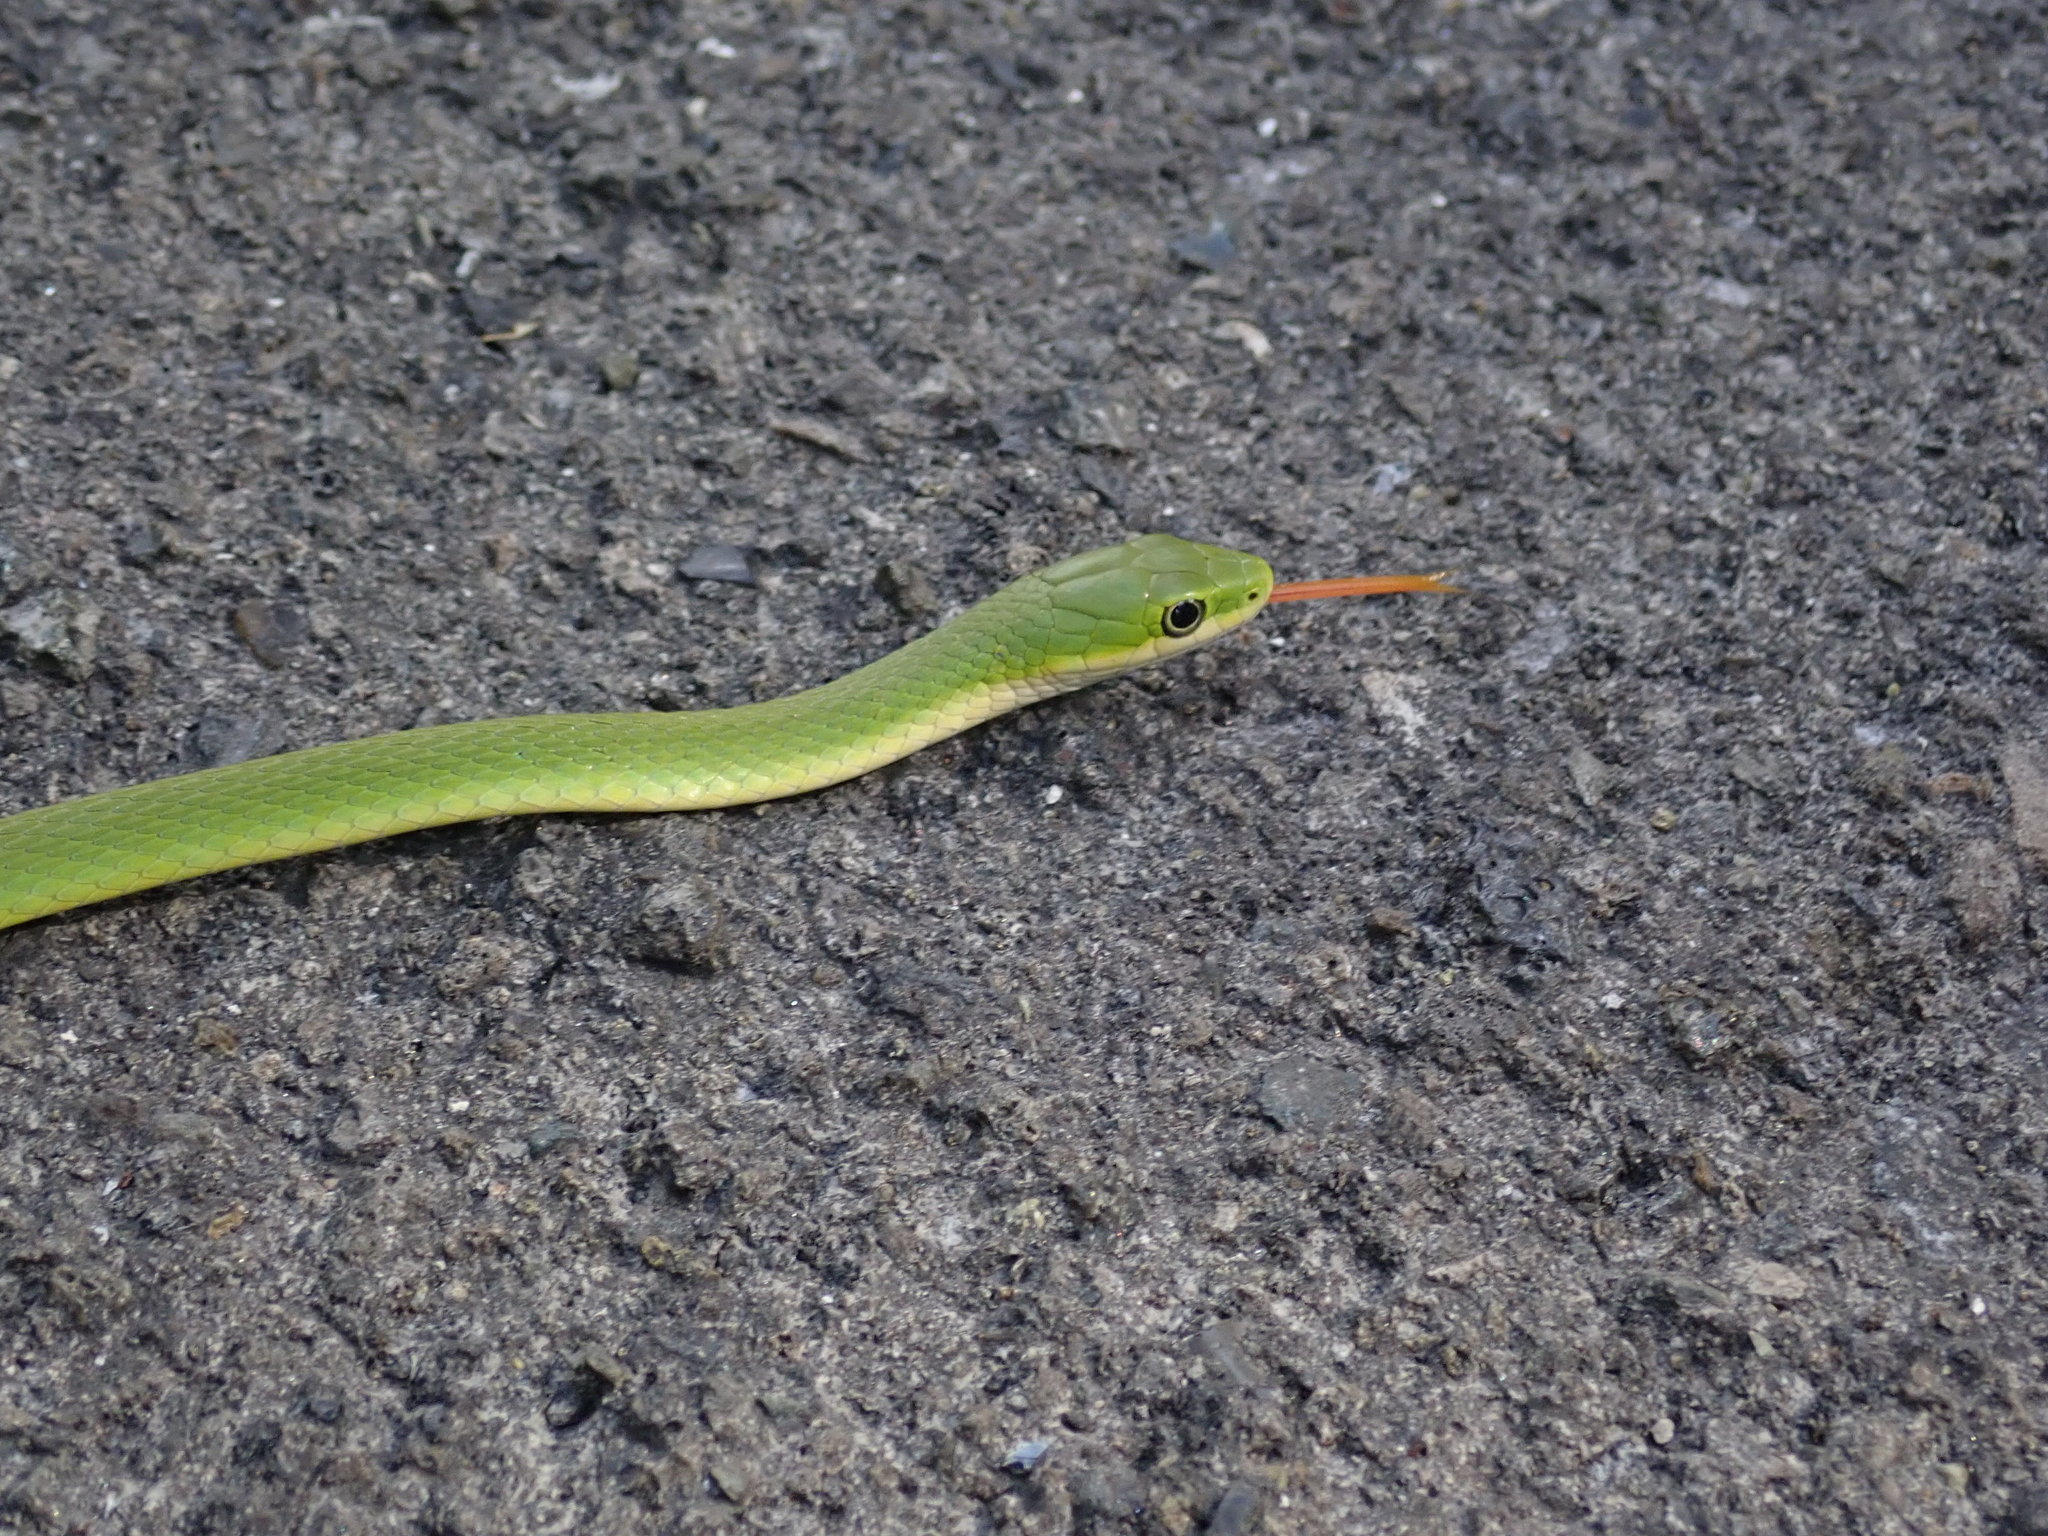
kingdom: Animalia
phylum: Chordata
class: Squamata
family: Colubridae
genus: Opheodrys
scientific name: Opheodrys aestivus
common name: Rough greensnake
